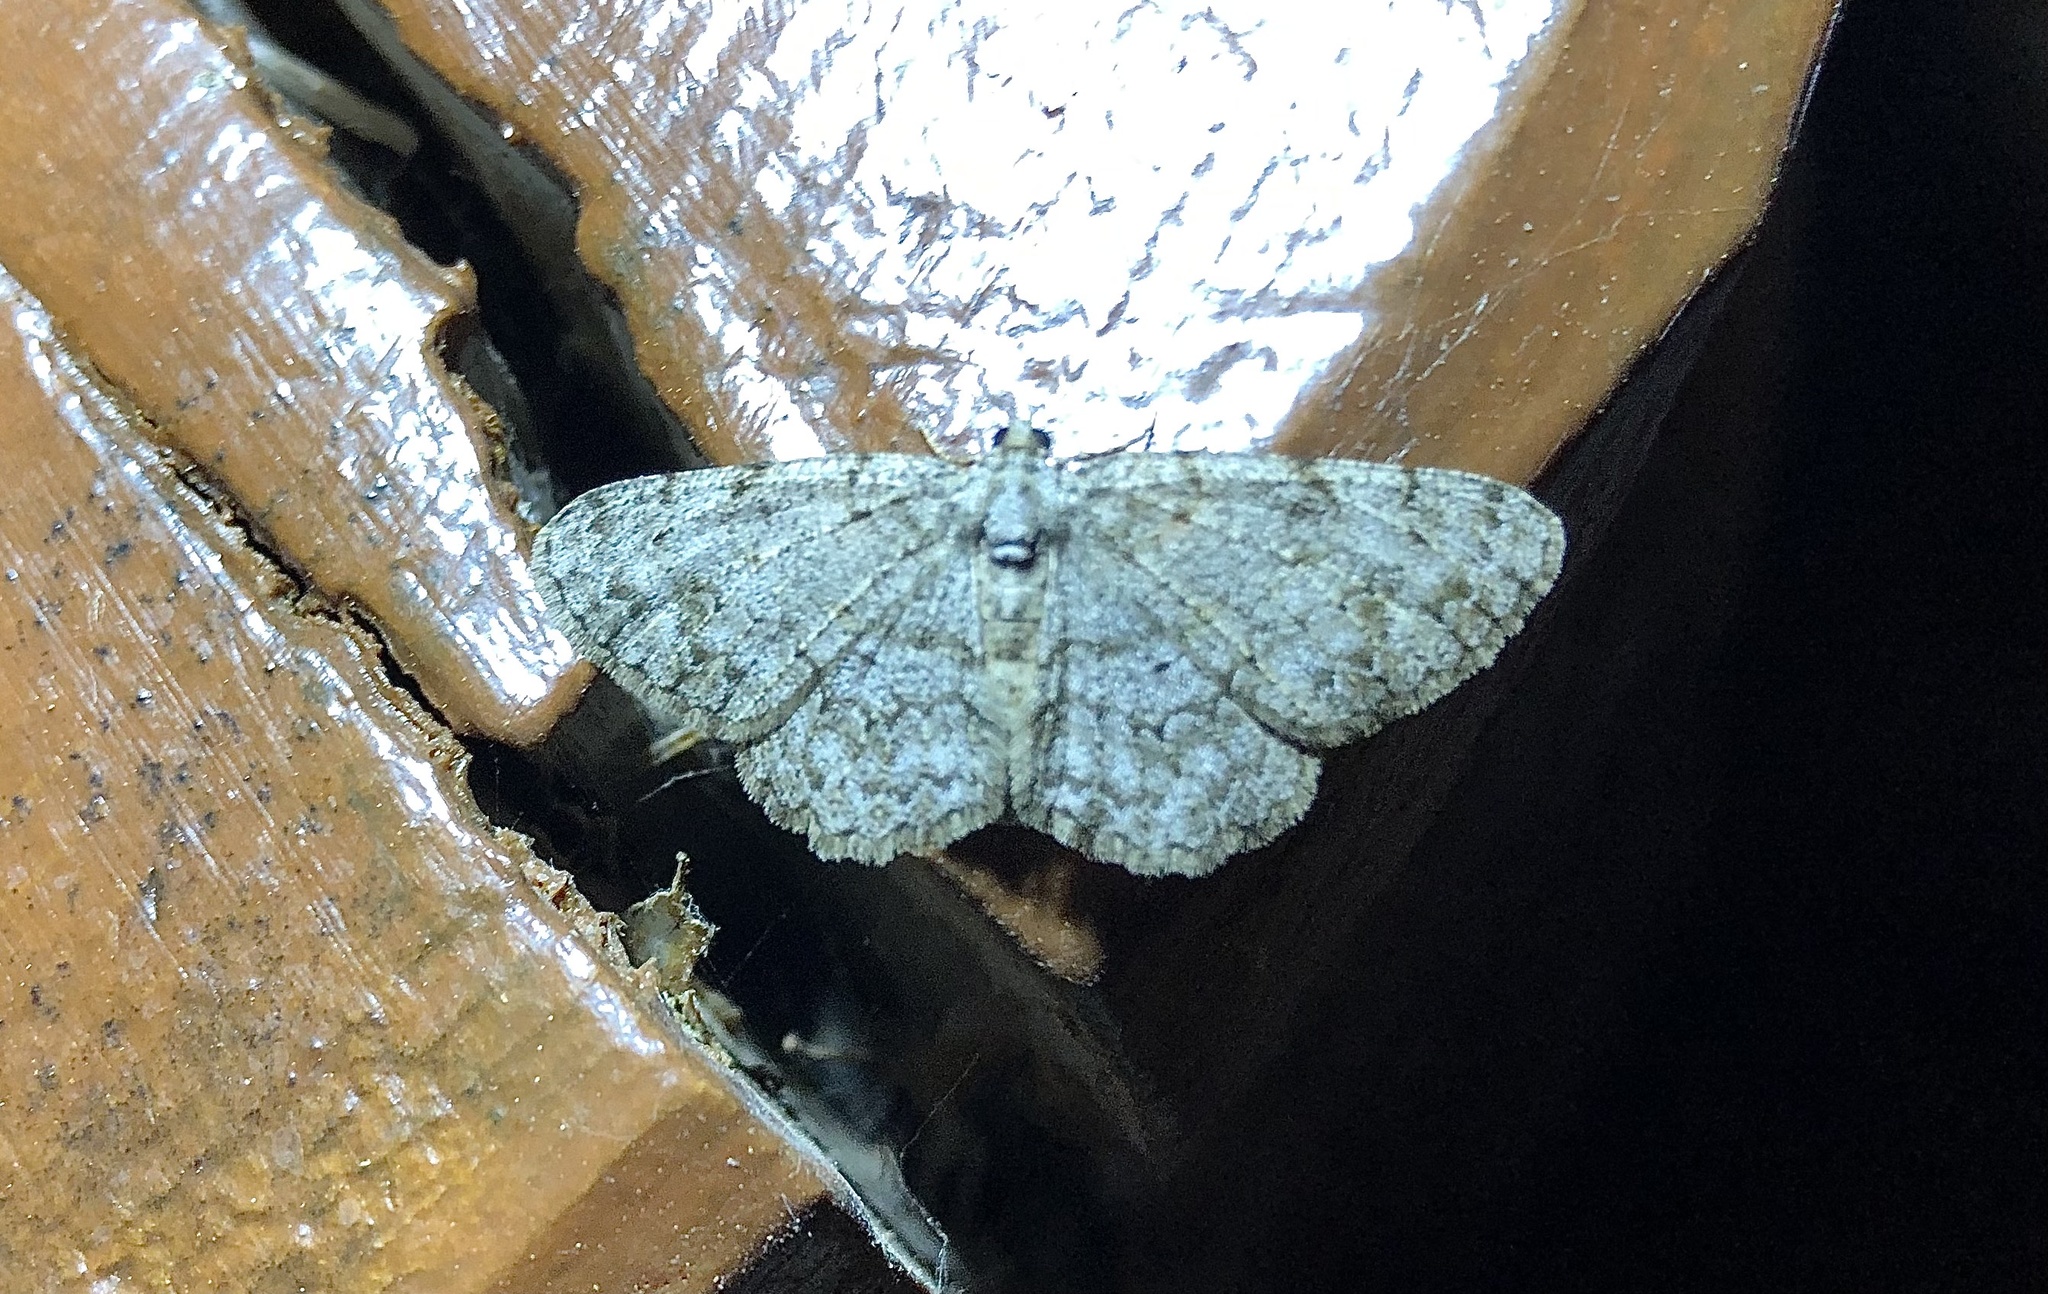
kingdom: Animalia
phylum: Arthropoda
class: Insecta
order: Lepidoptera
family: Geometridae
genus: Protoboarmia
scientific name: Protoboarmia porcelaria
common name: Porcelain gray
